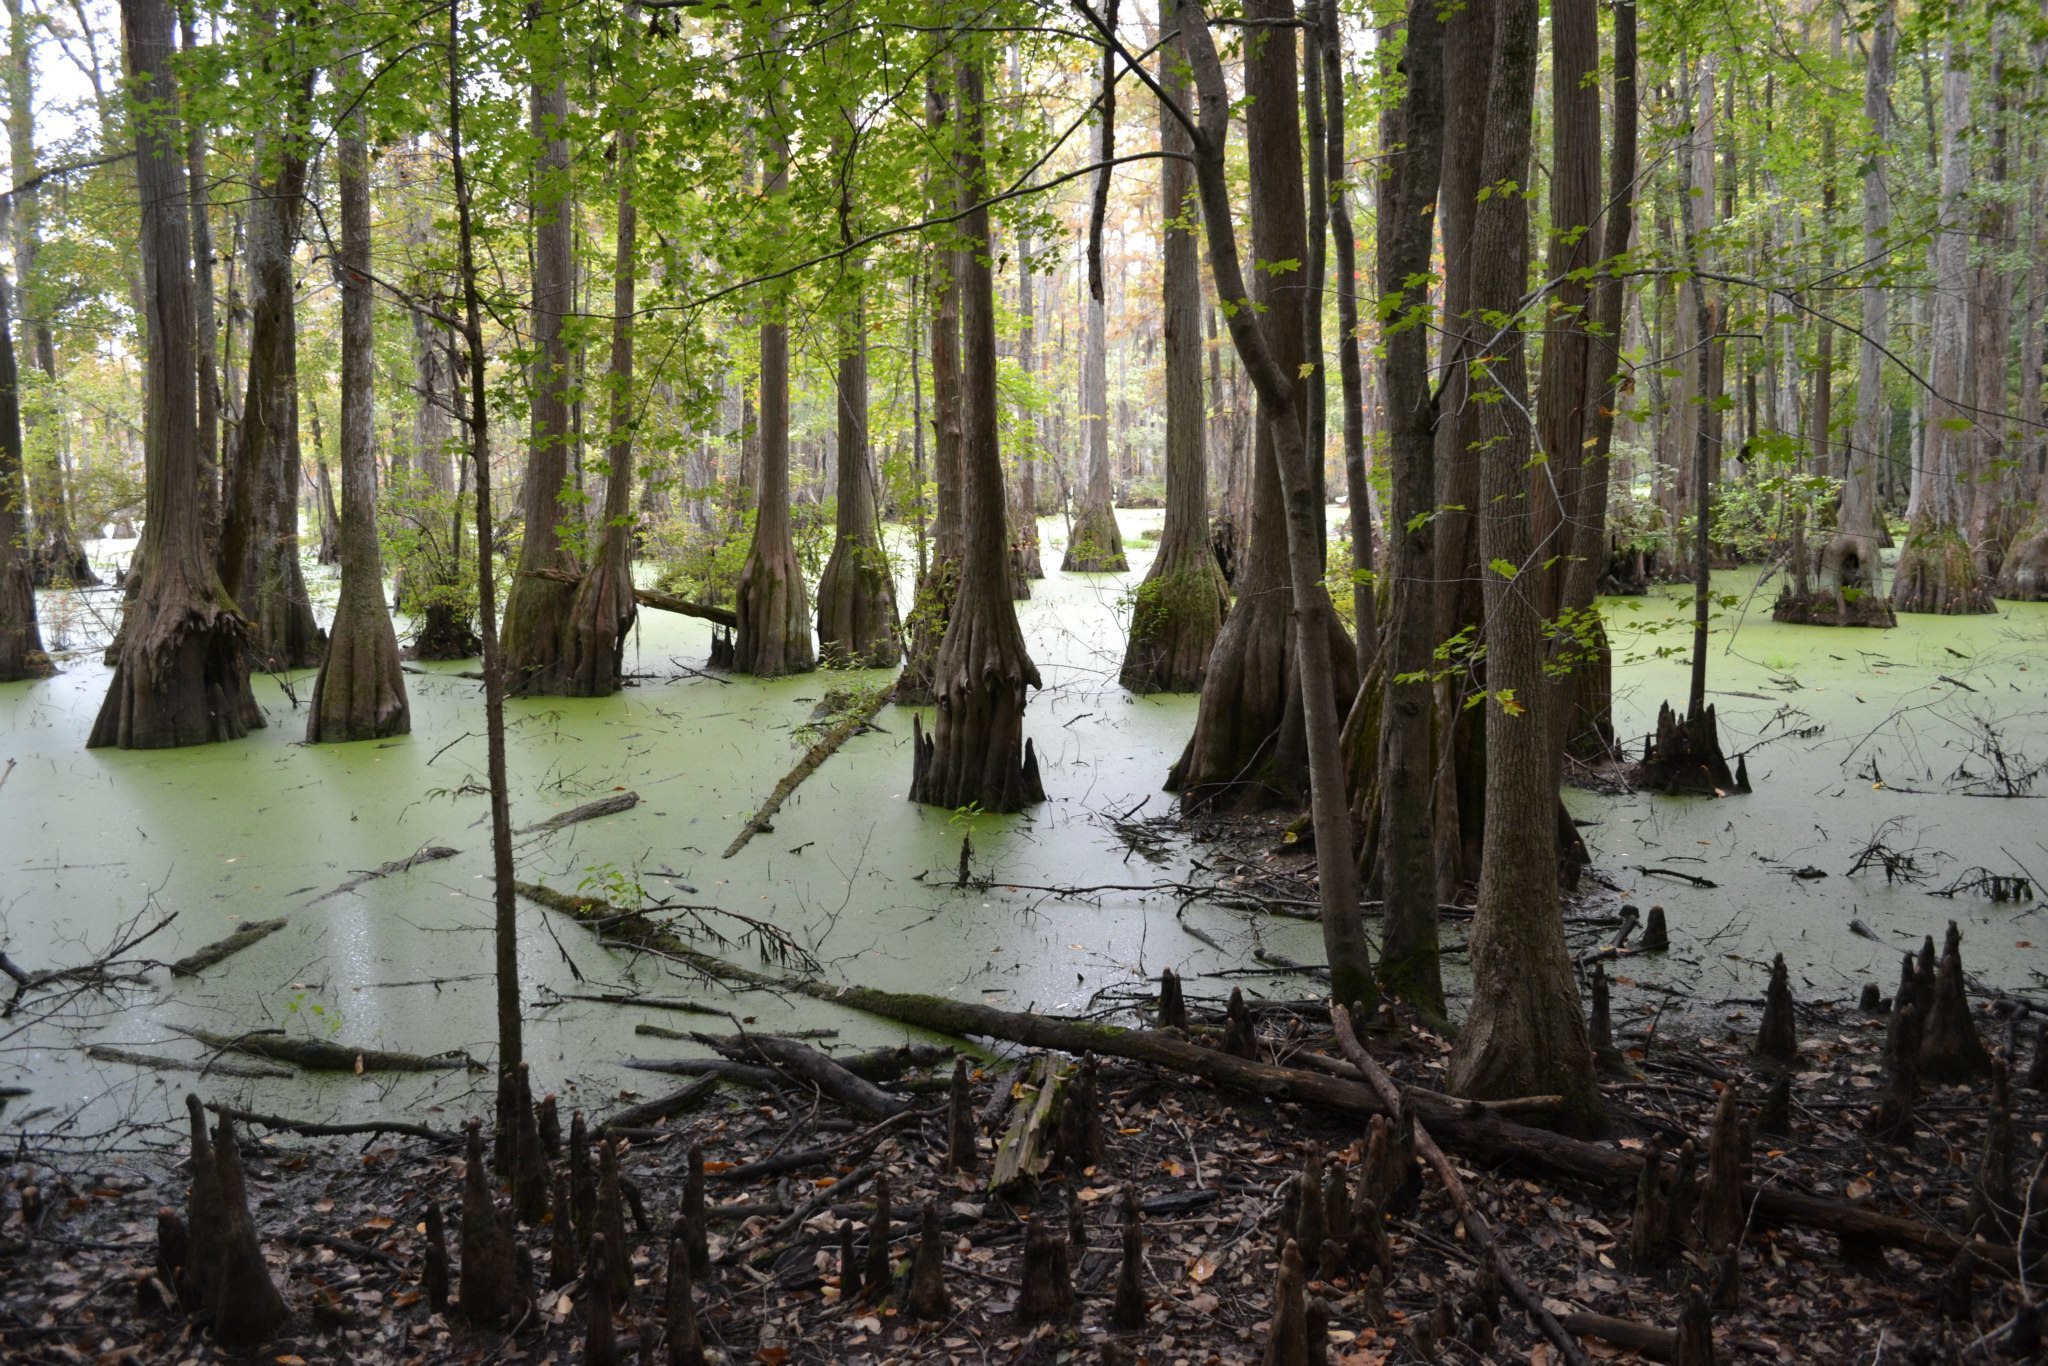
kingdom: Plantae
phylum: Tracheophyta
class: Pinopsida
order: Pinales
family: Cupressaceae
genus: Taxodium
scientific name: Taxodium distichum
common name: Bald cypress
